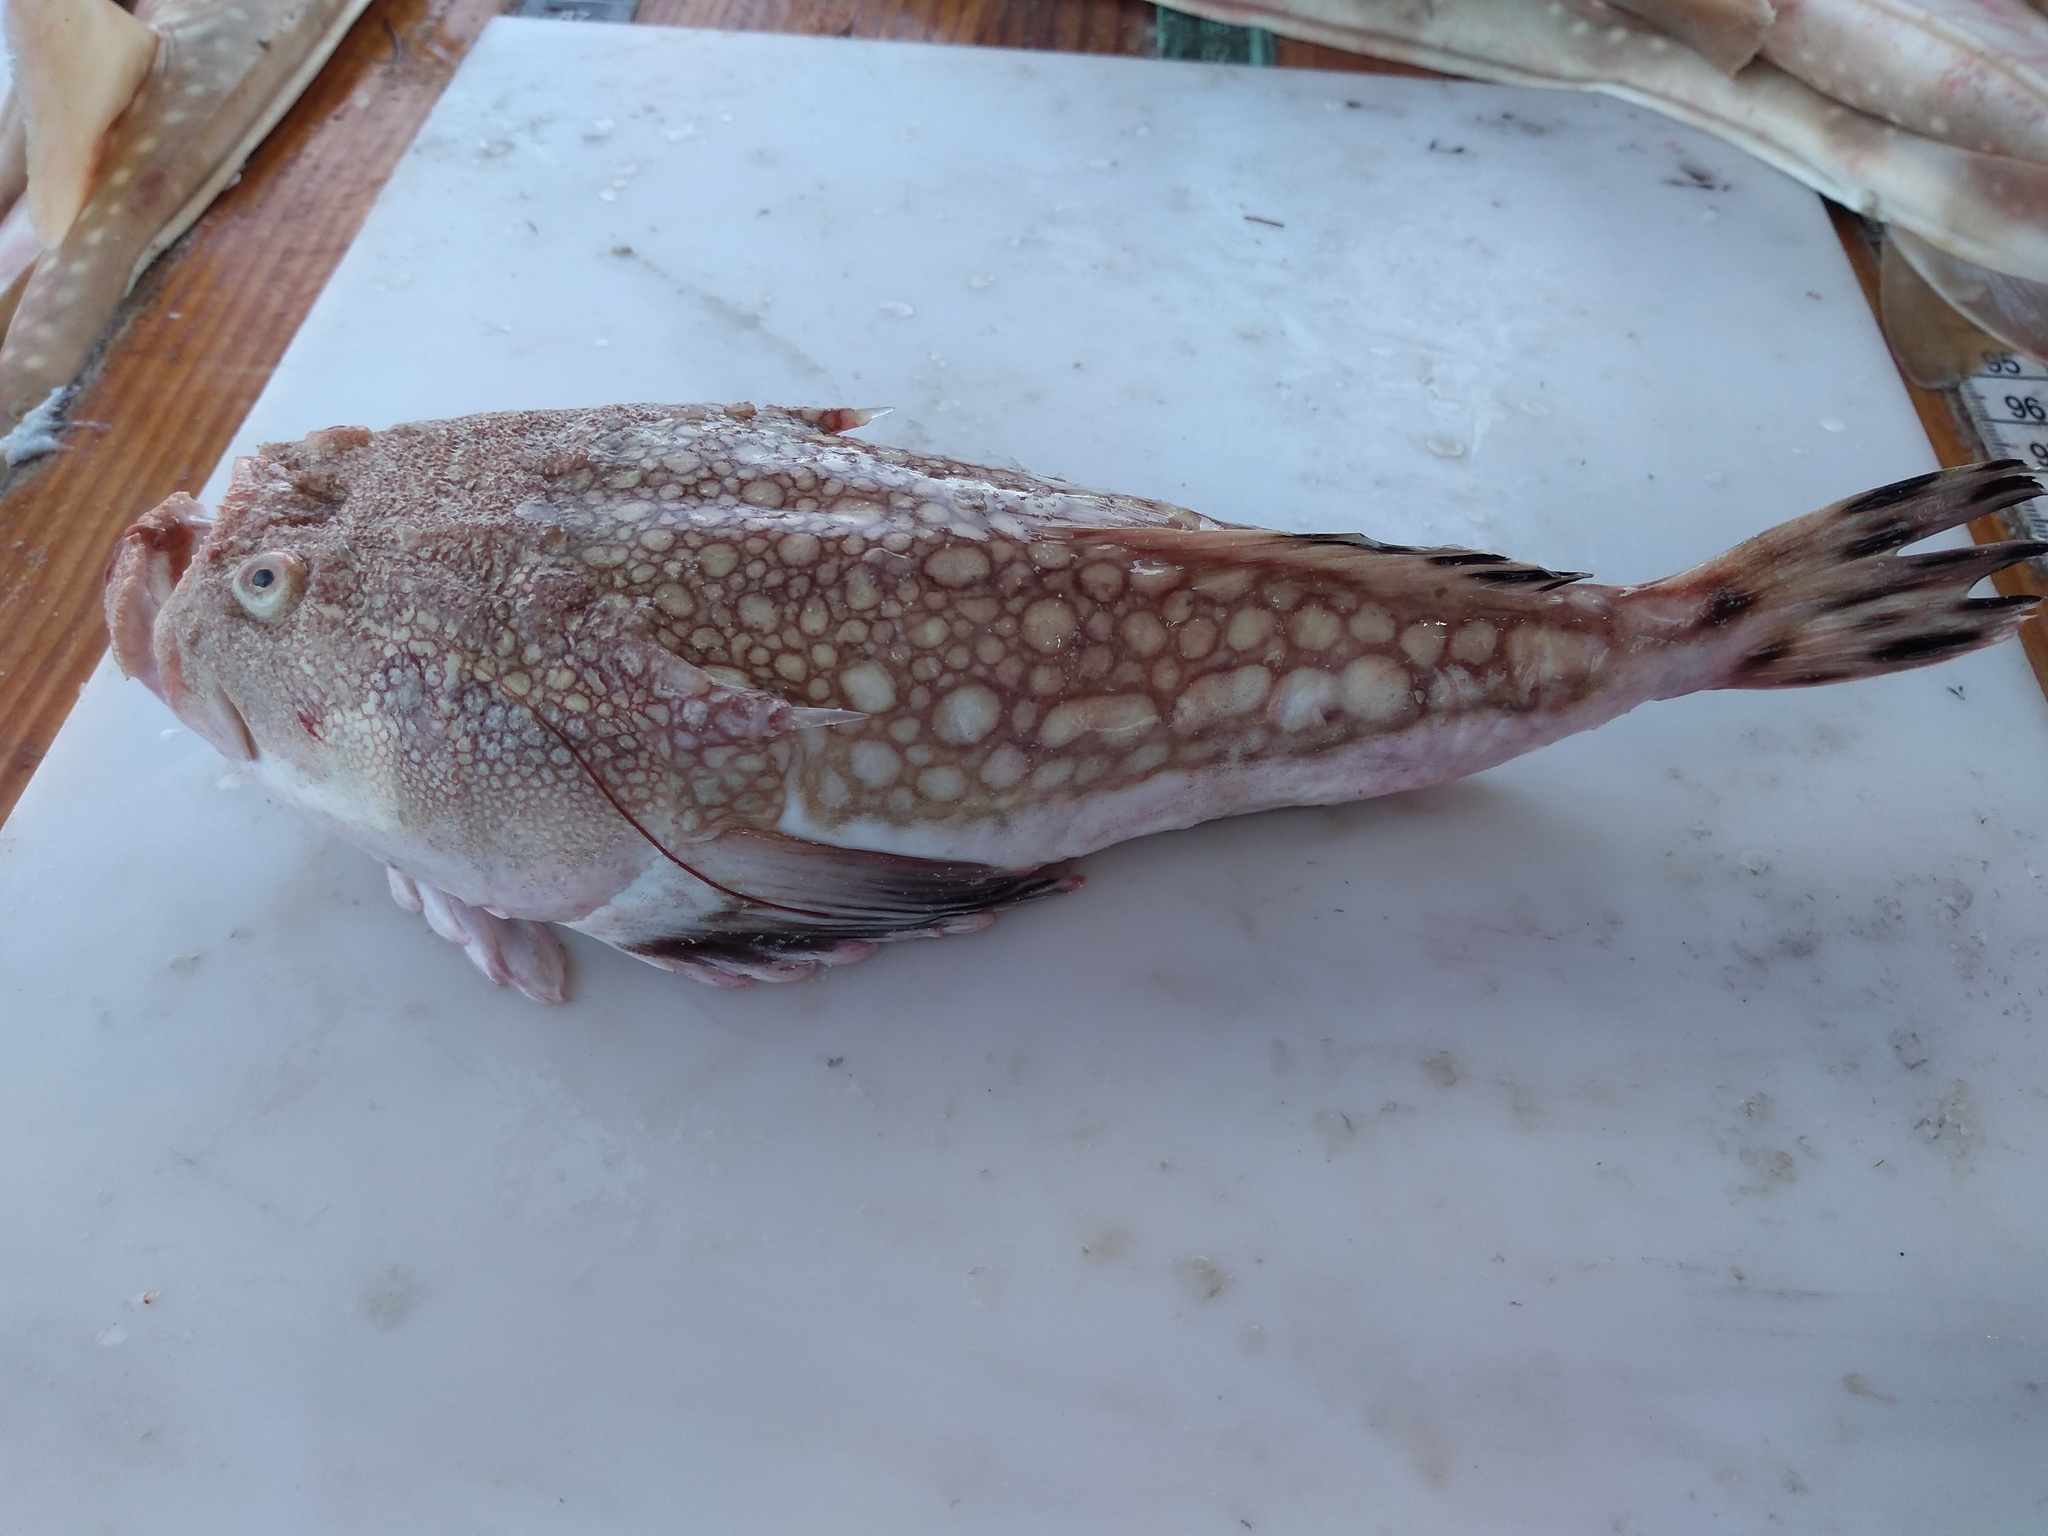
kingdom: Animalia
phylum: Chordata
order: Perciformes
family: Uranoscopidae
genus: Kathetostoma
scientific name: Kathetostoma albigutta
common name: Lancer stargazer
